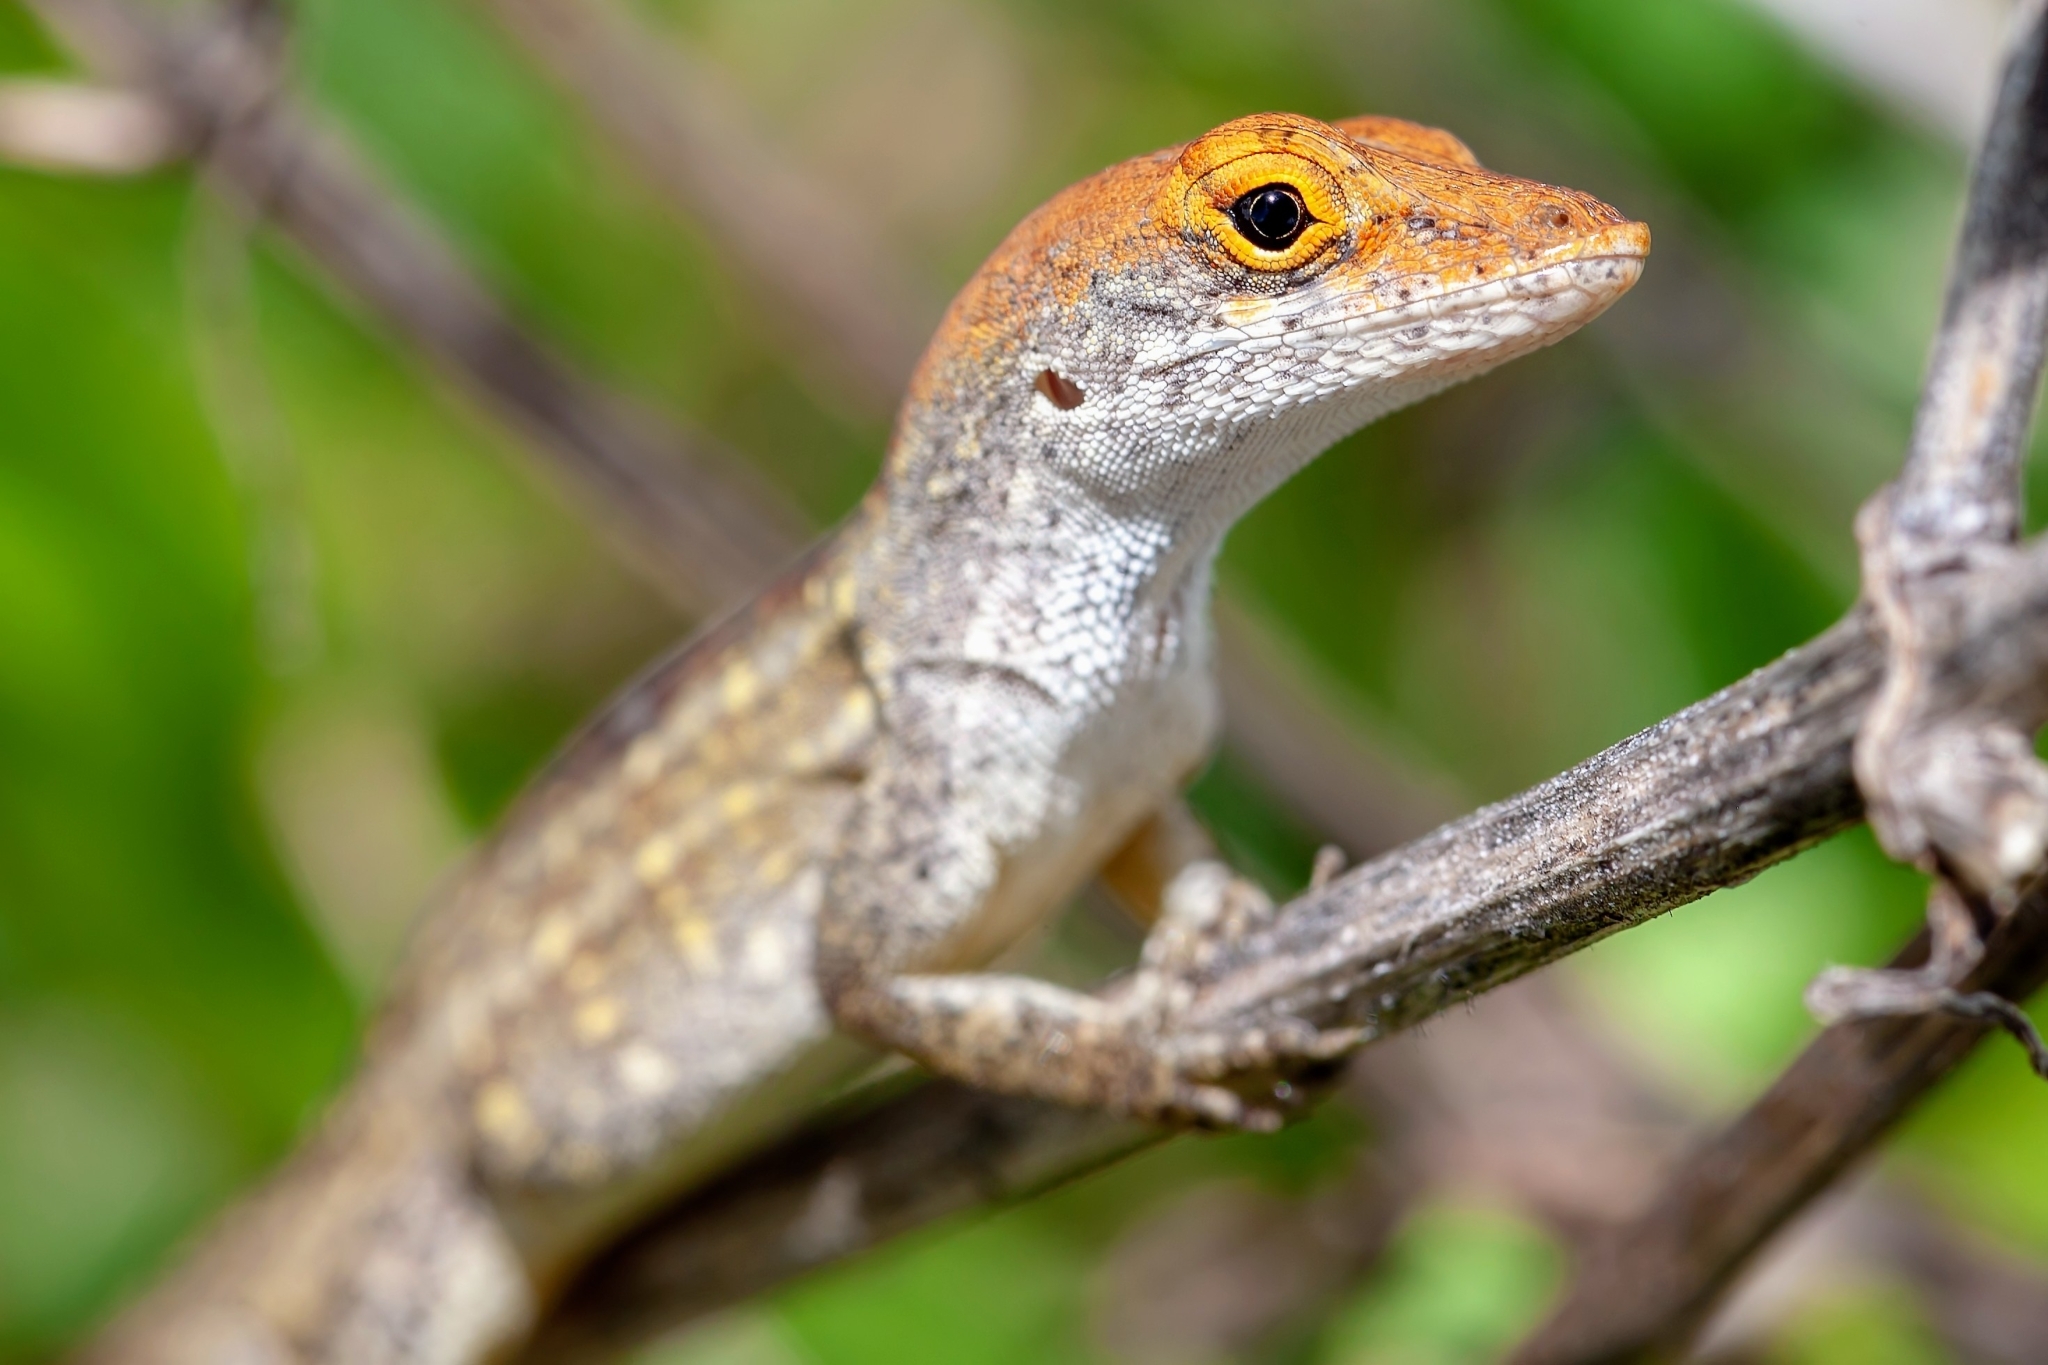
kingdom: Animalia
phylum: Chordata
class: Squamata
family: Dactyloidae
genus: Anolis
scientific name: Anolis sagrei
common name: Brown anole
